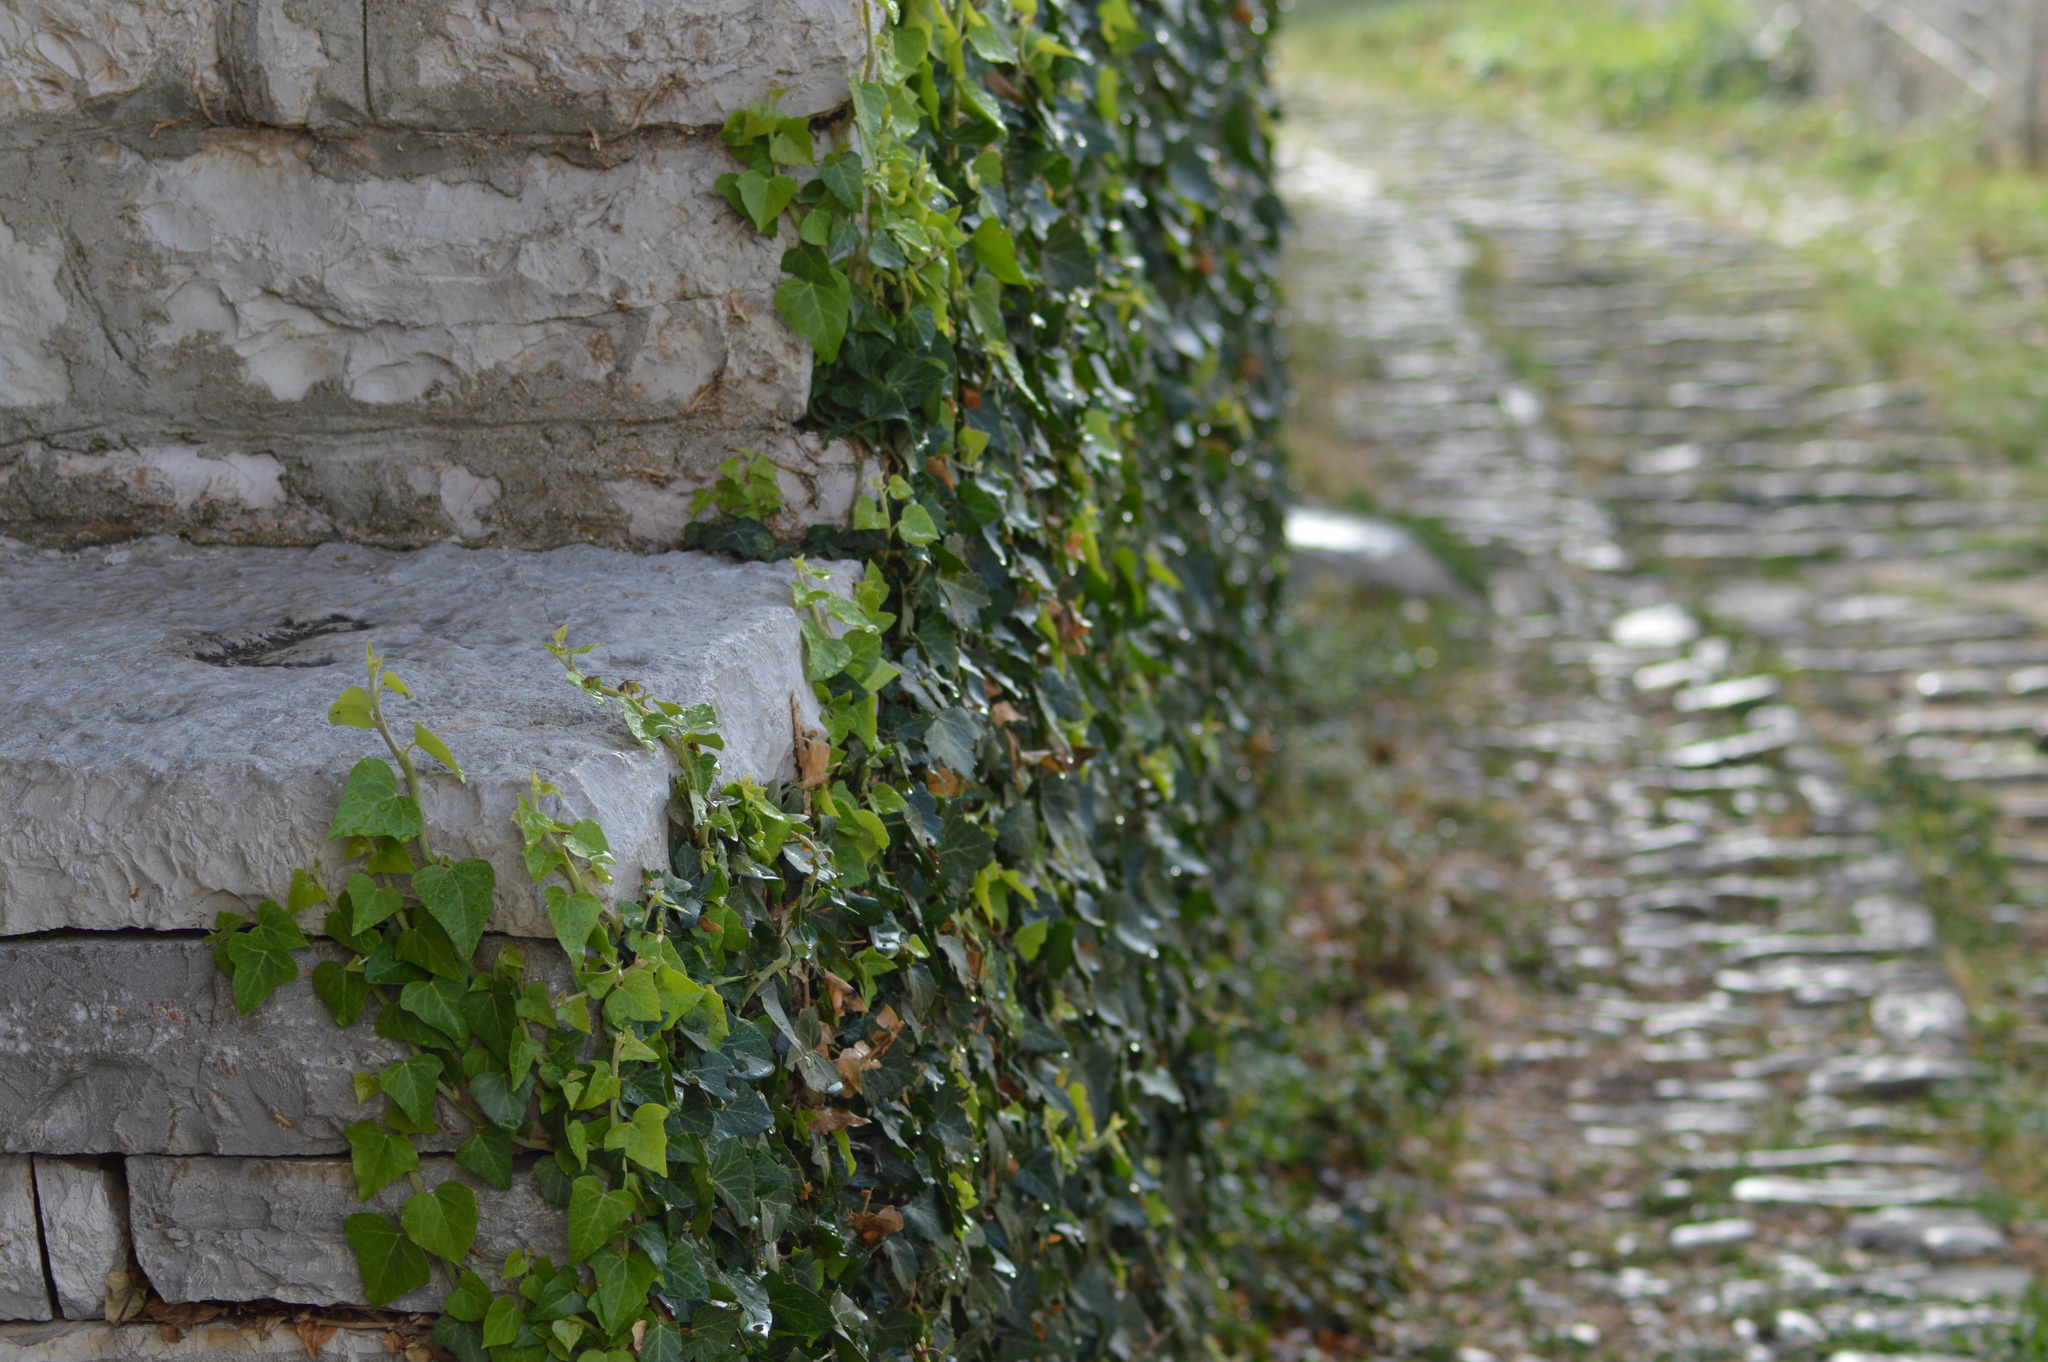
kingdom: Plantae
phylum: Tracheophyta
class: Magnoliopsida
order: Apiales
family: Araliaceae
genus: Hedera
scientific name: Hedera helix
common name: Ivy
